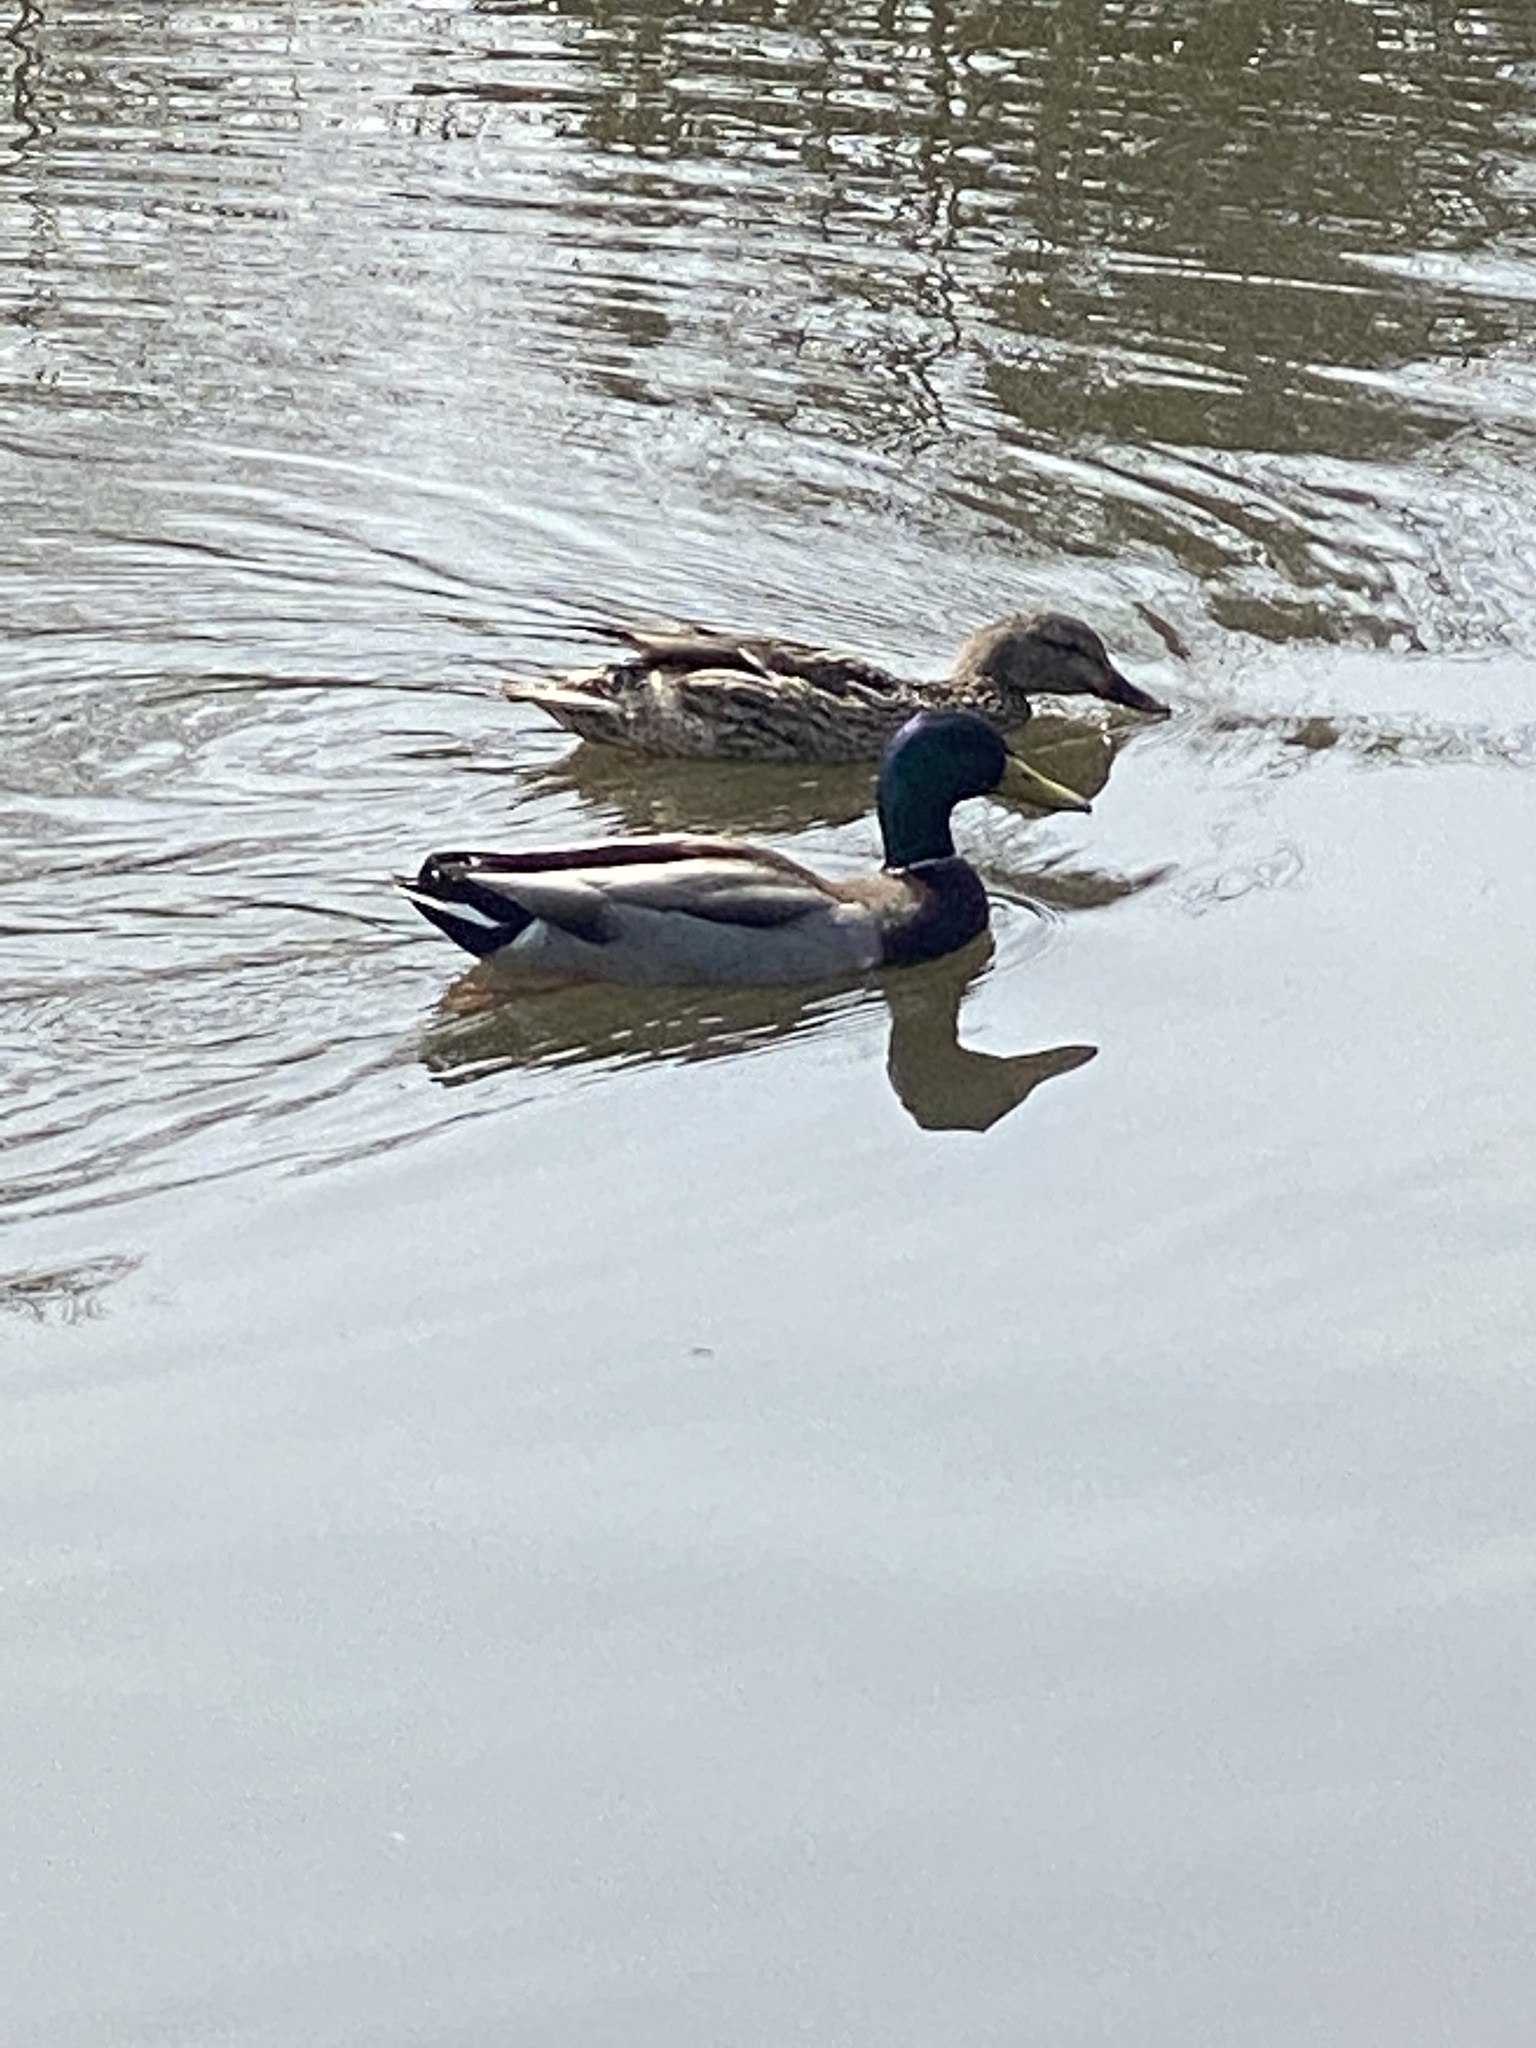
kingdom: Animalia
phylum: Chordata
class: Aves
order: Anseriformes
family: Anatidae
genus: Anas
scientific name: Anas platyrhynchos
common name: Mallard
